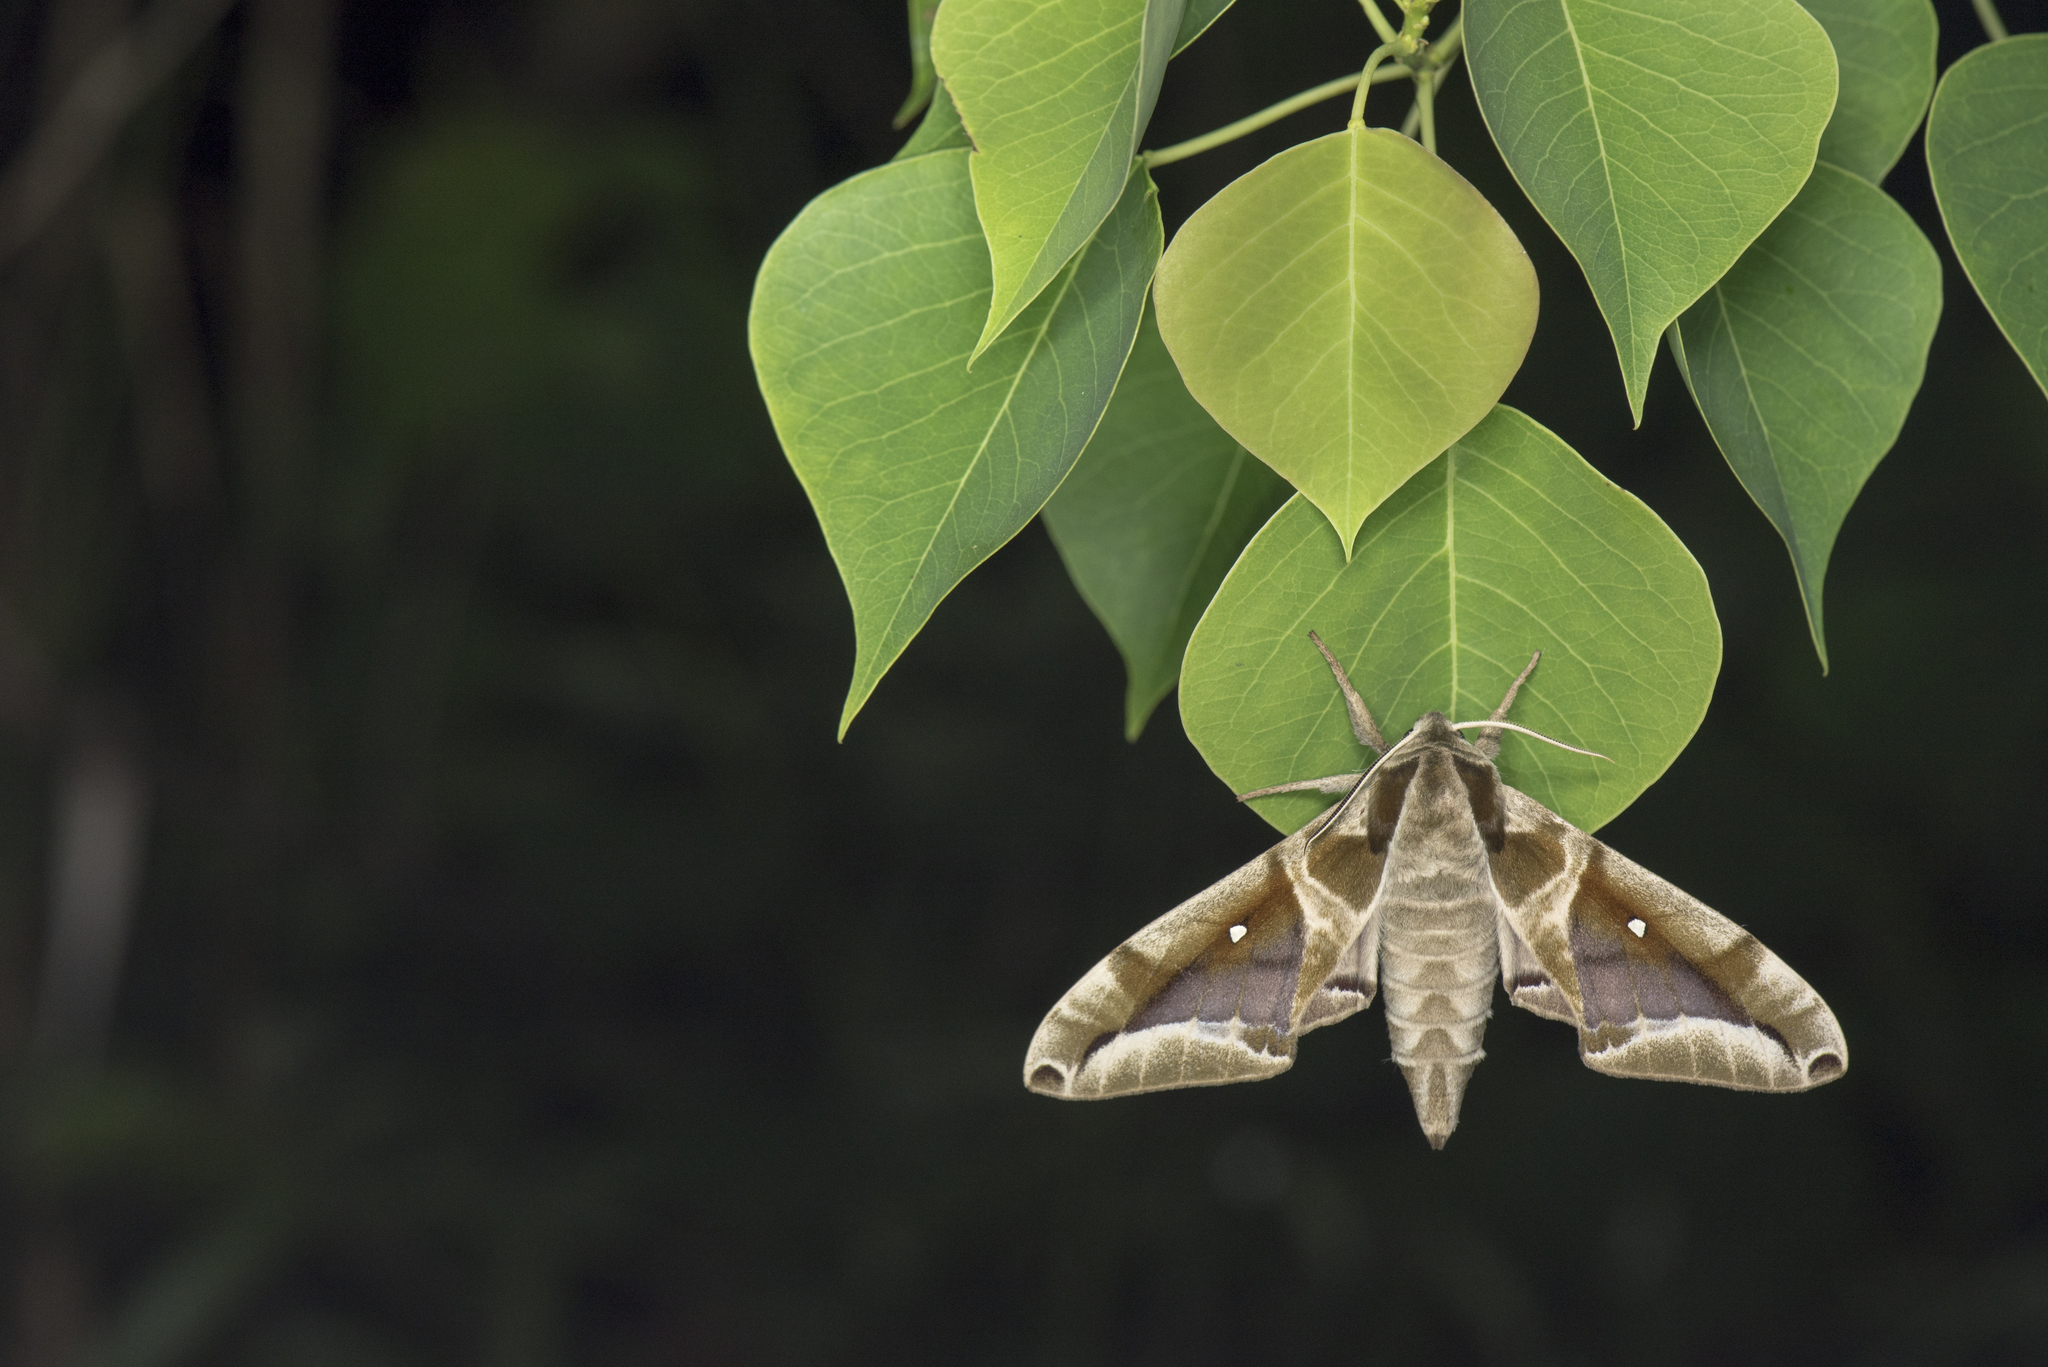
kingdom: Animalia
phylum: Arthropoda
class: Insecta
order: Lepidoptera
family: Sphingidae
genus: Parum
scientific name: Parum colligata
